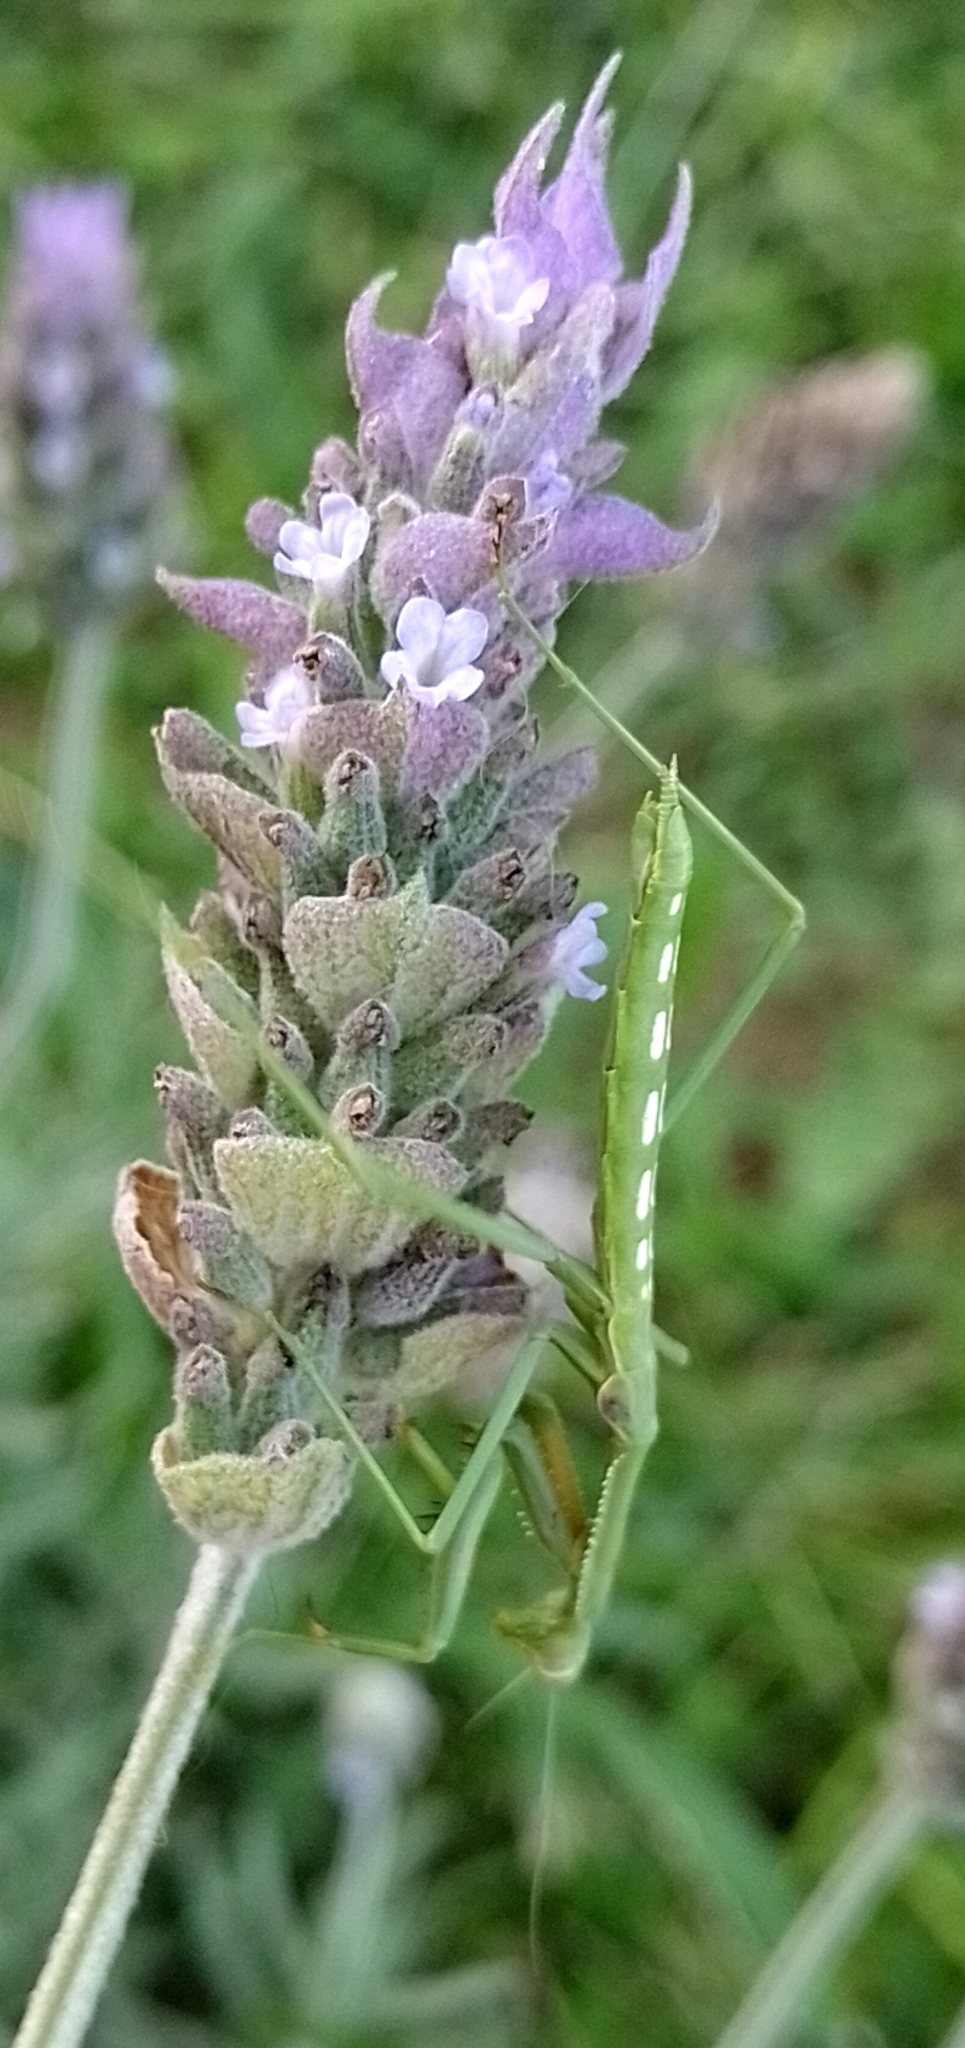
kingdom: Animalia
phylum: Arthropoda
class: Insecta
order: Mantodea
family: Coptopterygidae
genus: Coptopteryx
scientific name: Coptopteryx gayi
